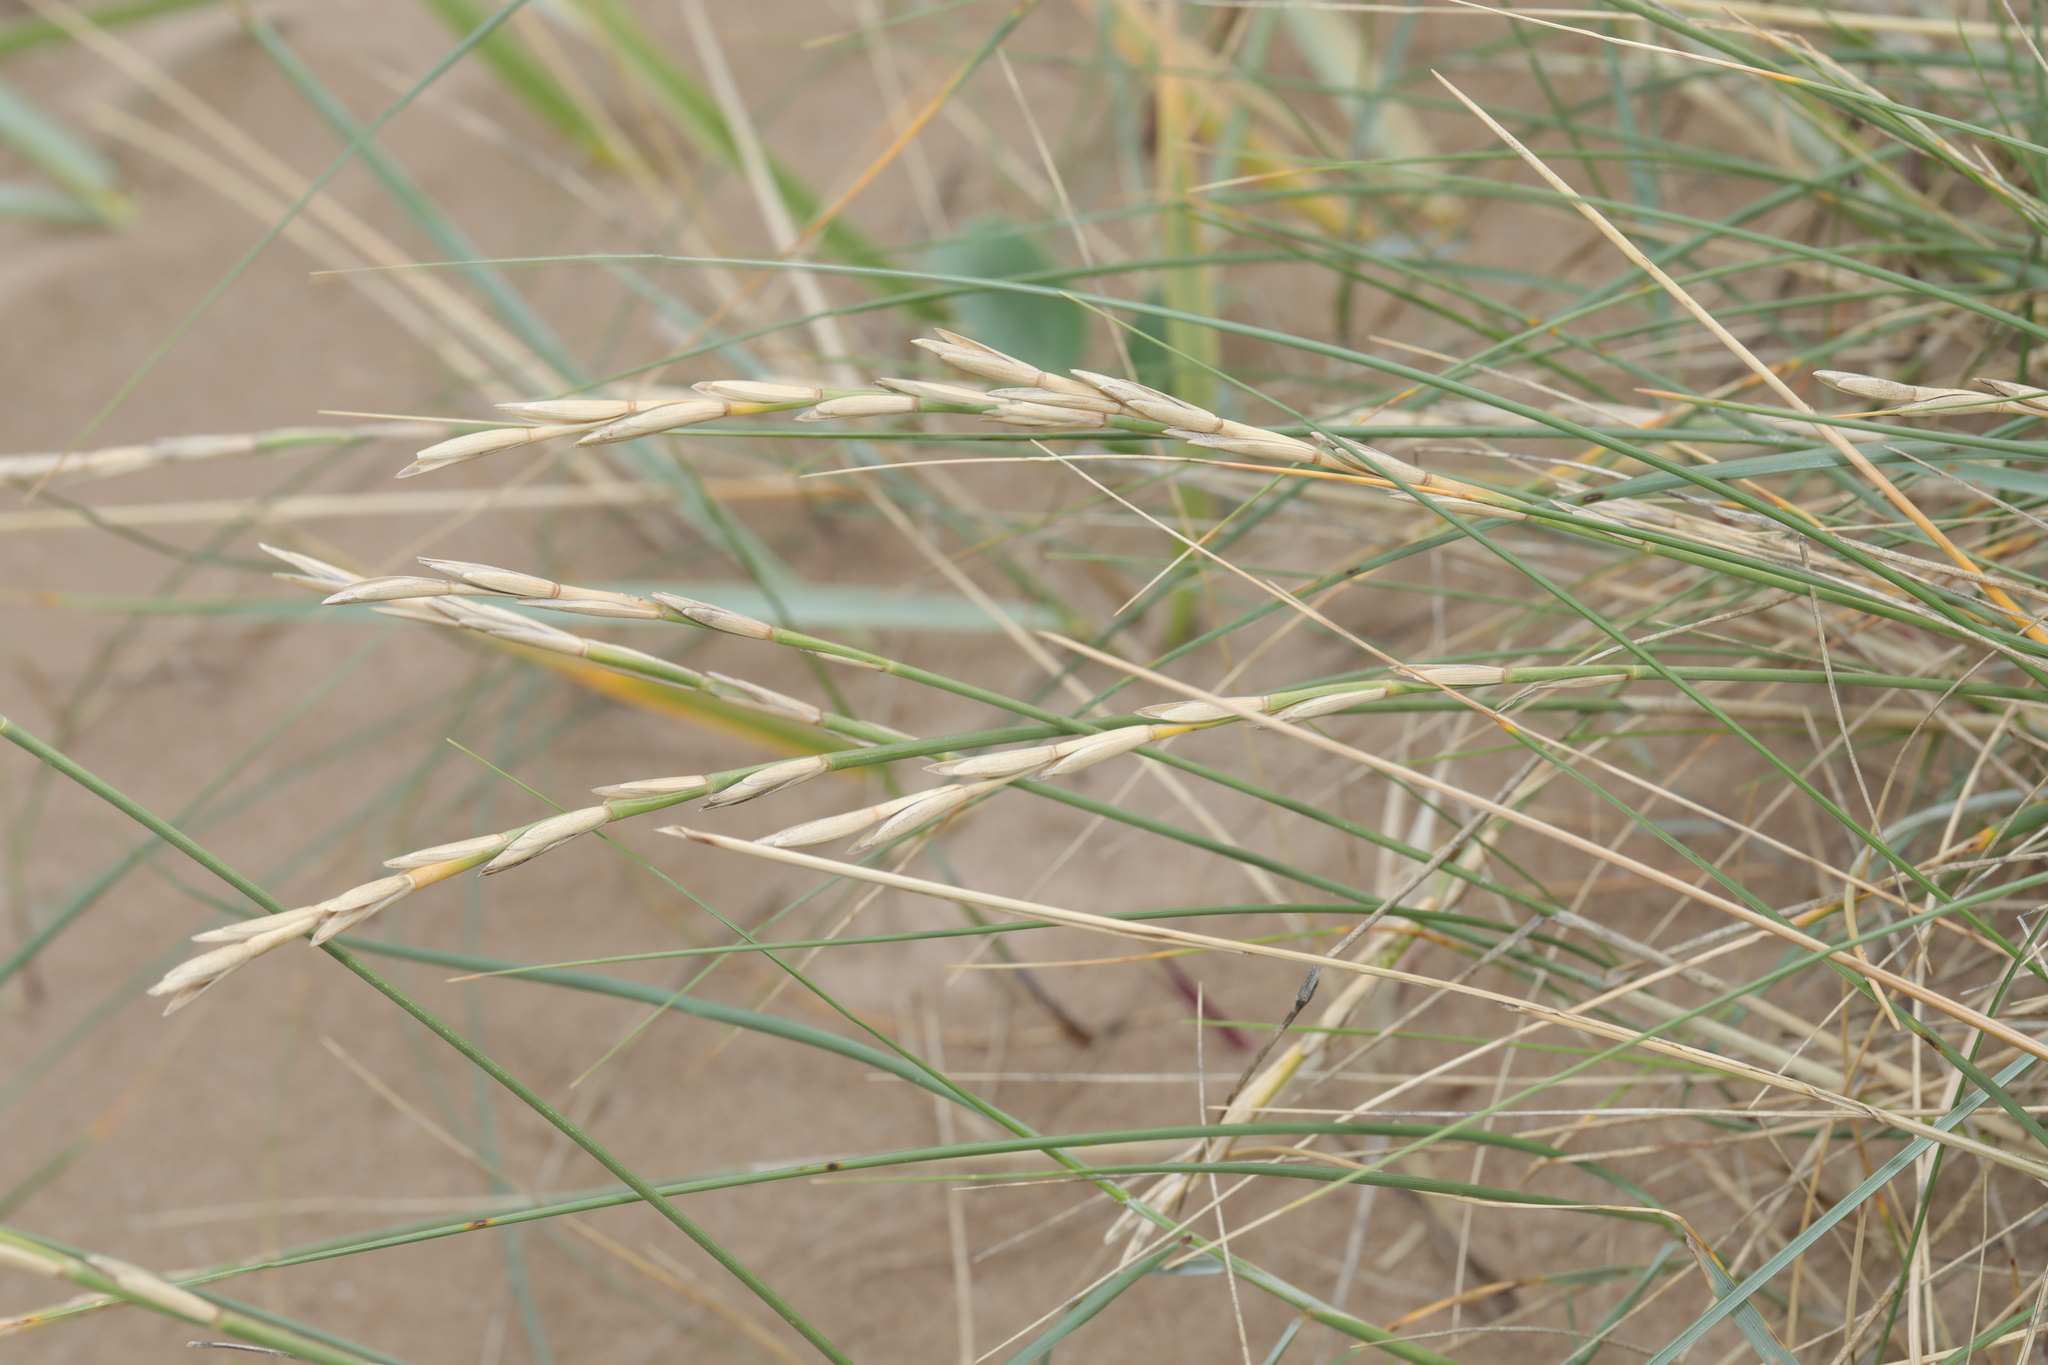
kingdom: Plantae
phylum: Tracheophyta
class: Liliopsida
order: Poales
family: Poaceae
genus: Thinopyrum
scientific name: Thinopyrum junceum
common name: Russian wheatgrass
